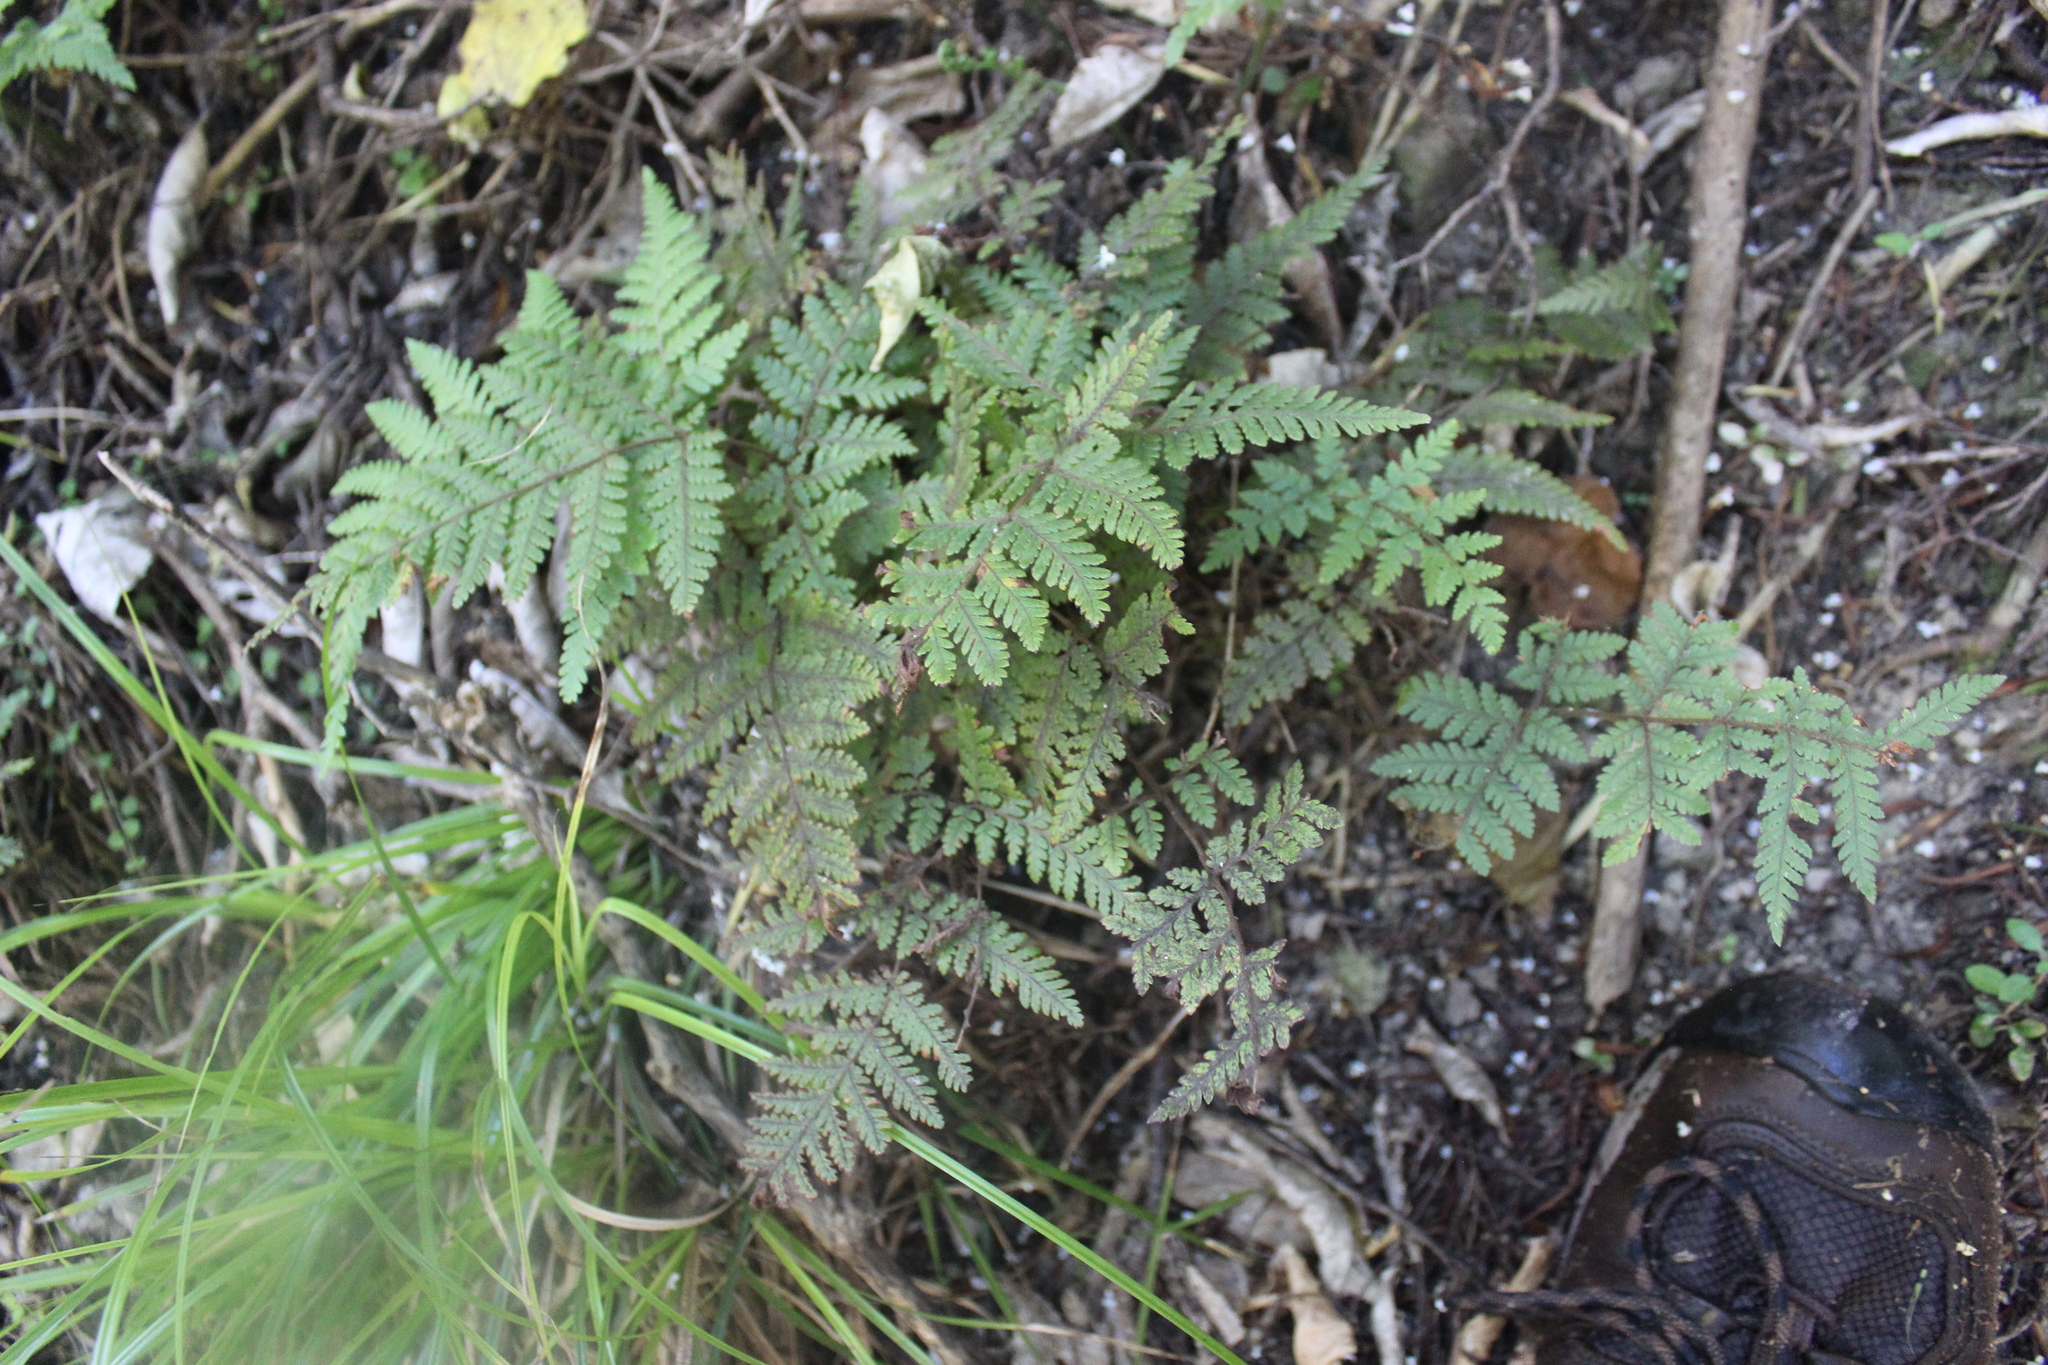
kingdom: Plantae
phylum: Tracheophyta
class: Polypodiopsida
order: Polypodiales
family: Dryopteridaceae
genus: Lastreopsis
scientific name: Lastreopsis velutina
